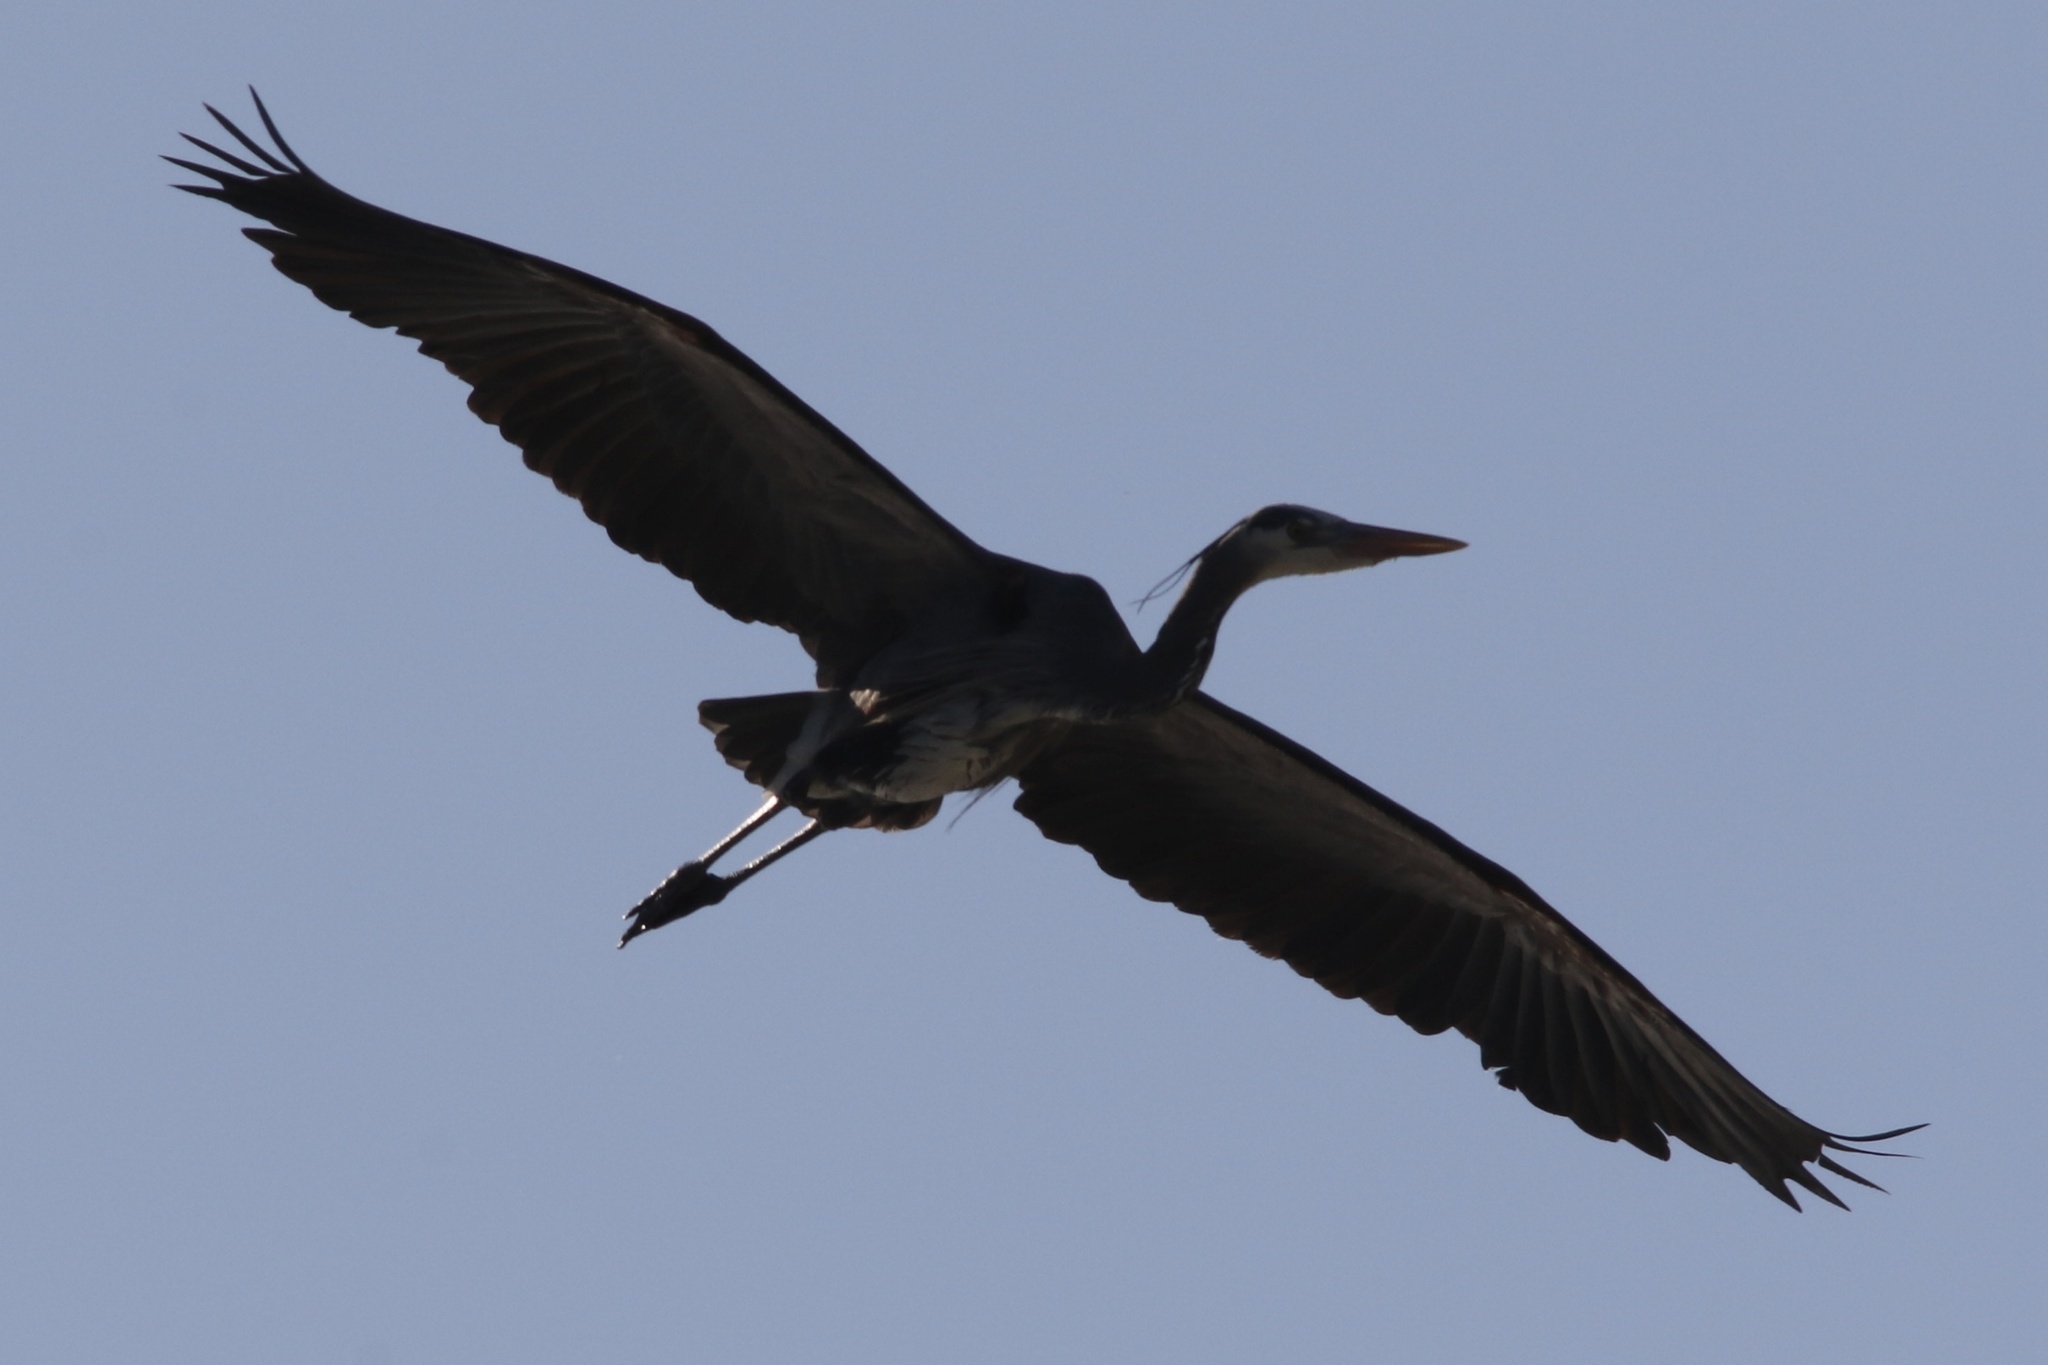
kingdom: Animalia
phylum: Chordata
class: Aves
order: Pelecaniformes
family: Ardeidae
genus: Ardea
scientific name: Ardea herodias
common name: Great blue heron
